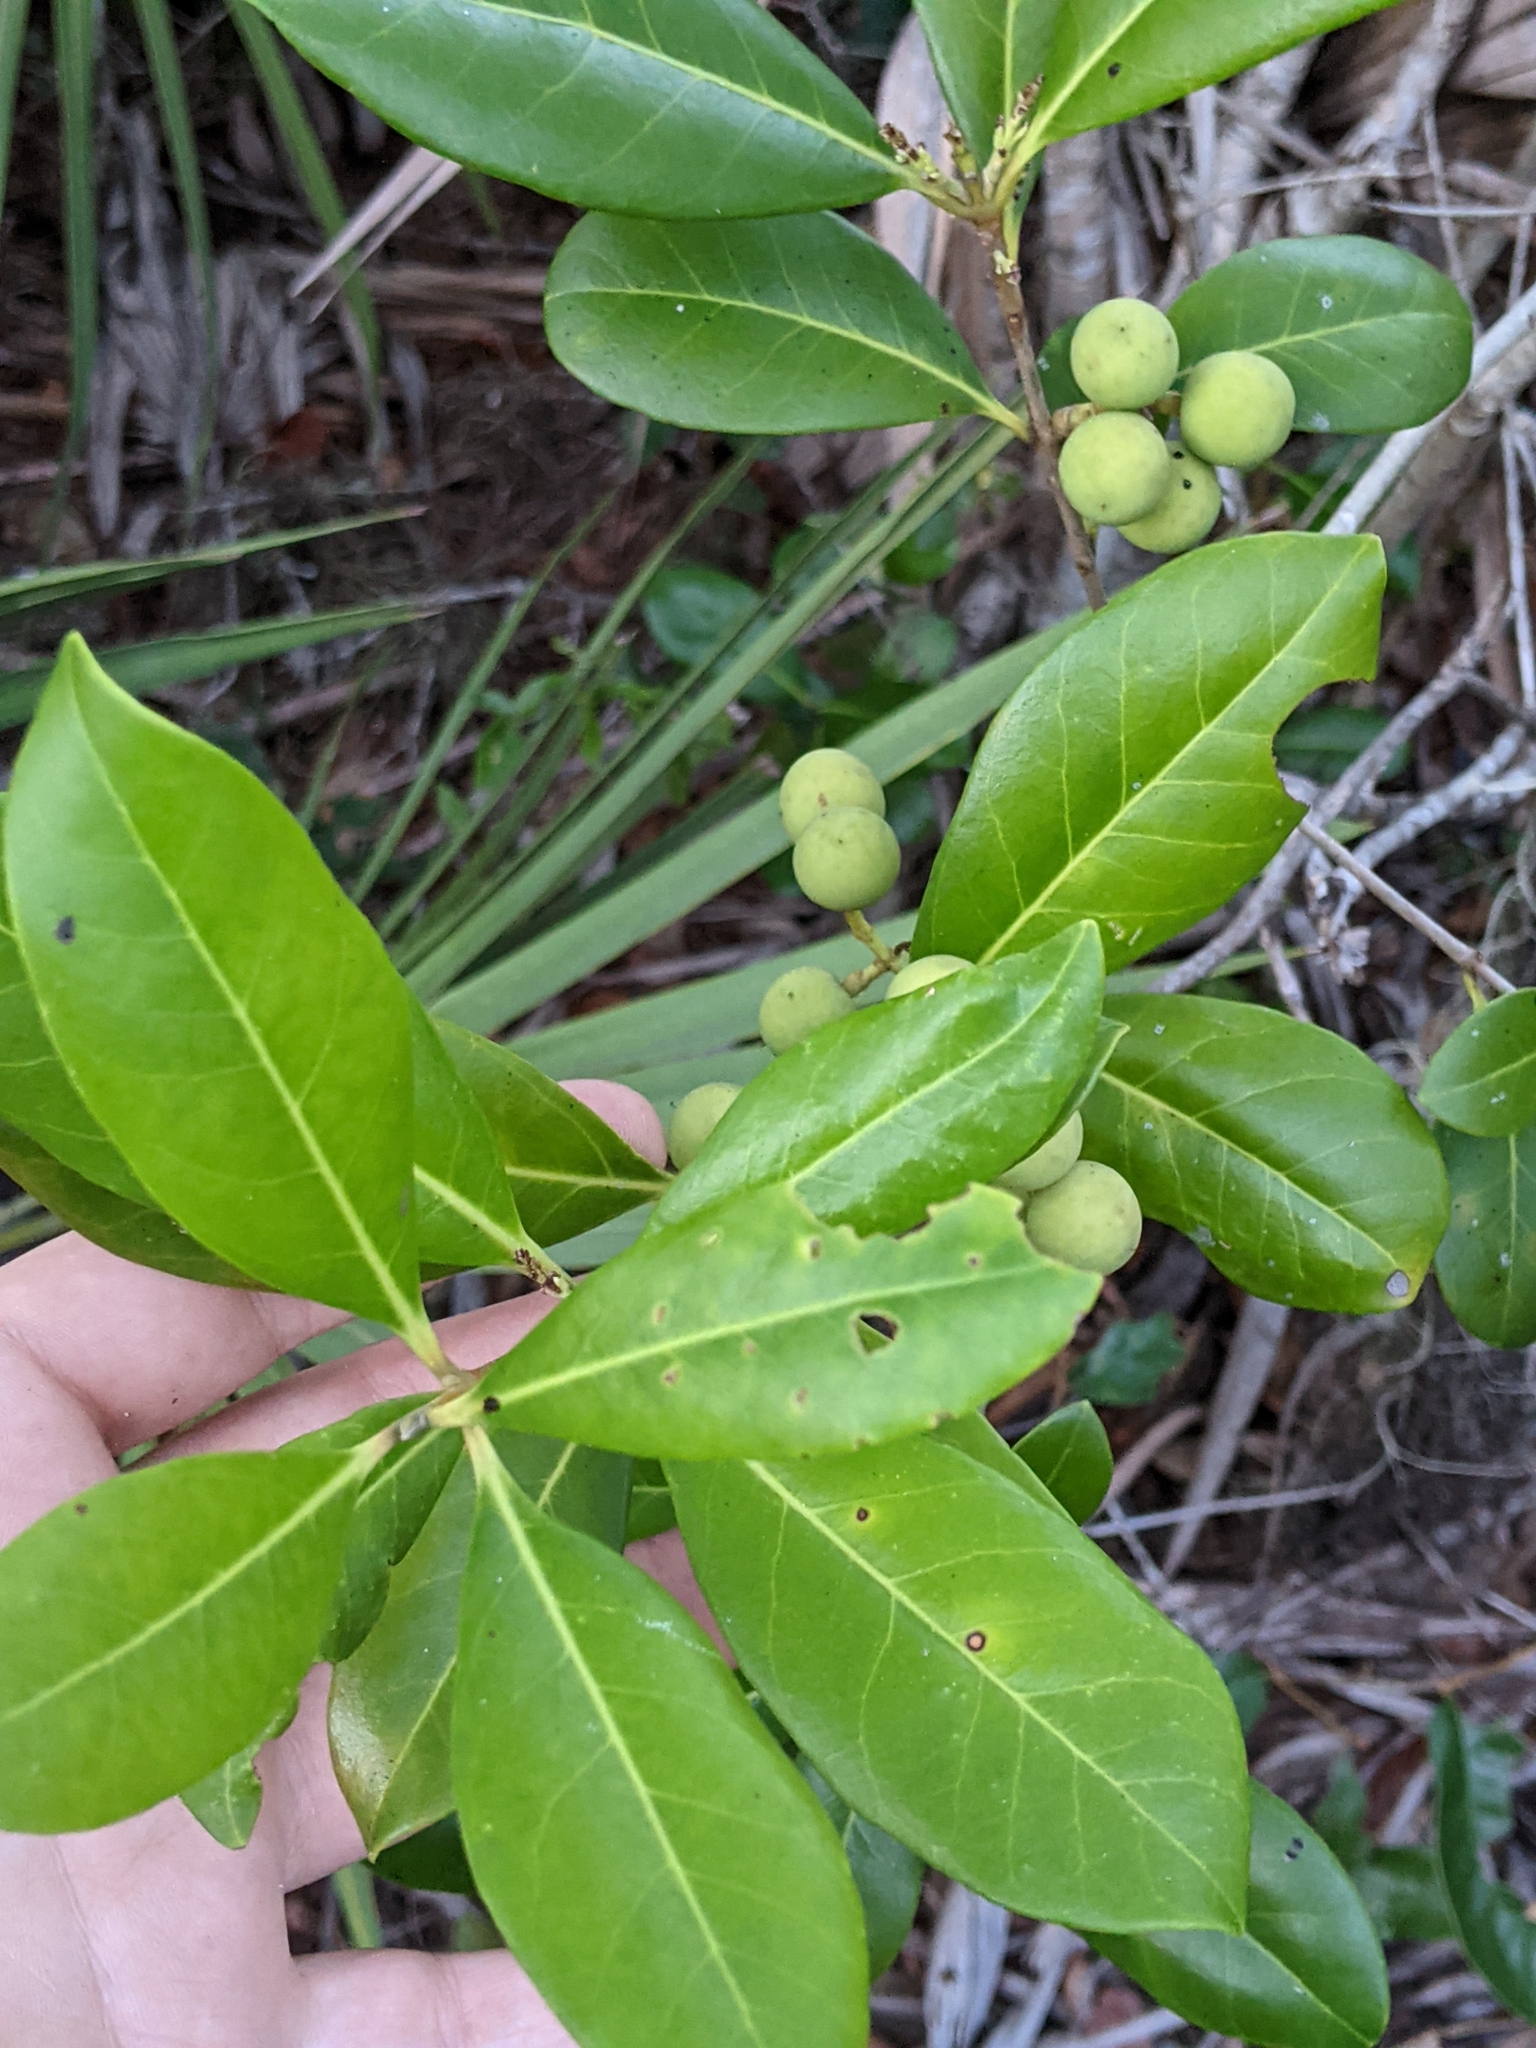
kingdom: Plantae
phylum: Tracheophyta
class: Magnoliopsida
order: Lamiales
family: Oleaceae
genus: Cartrema
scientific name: Cartrema americana
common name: Devilwood
